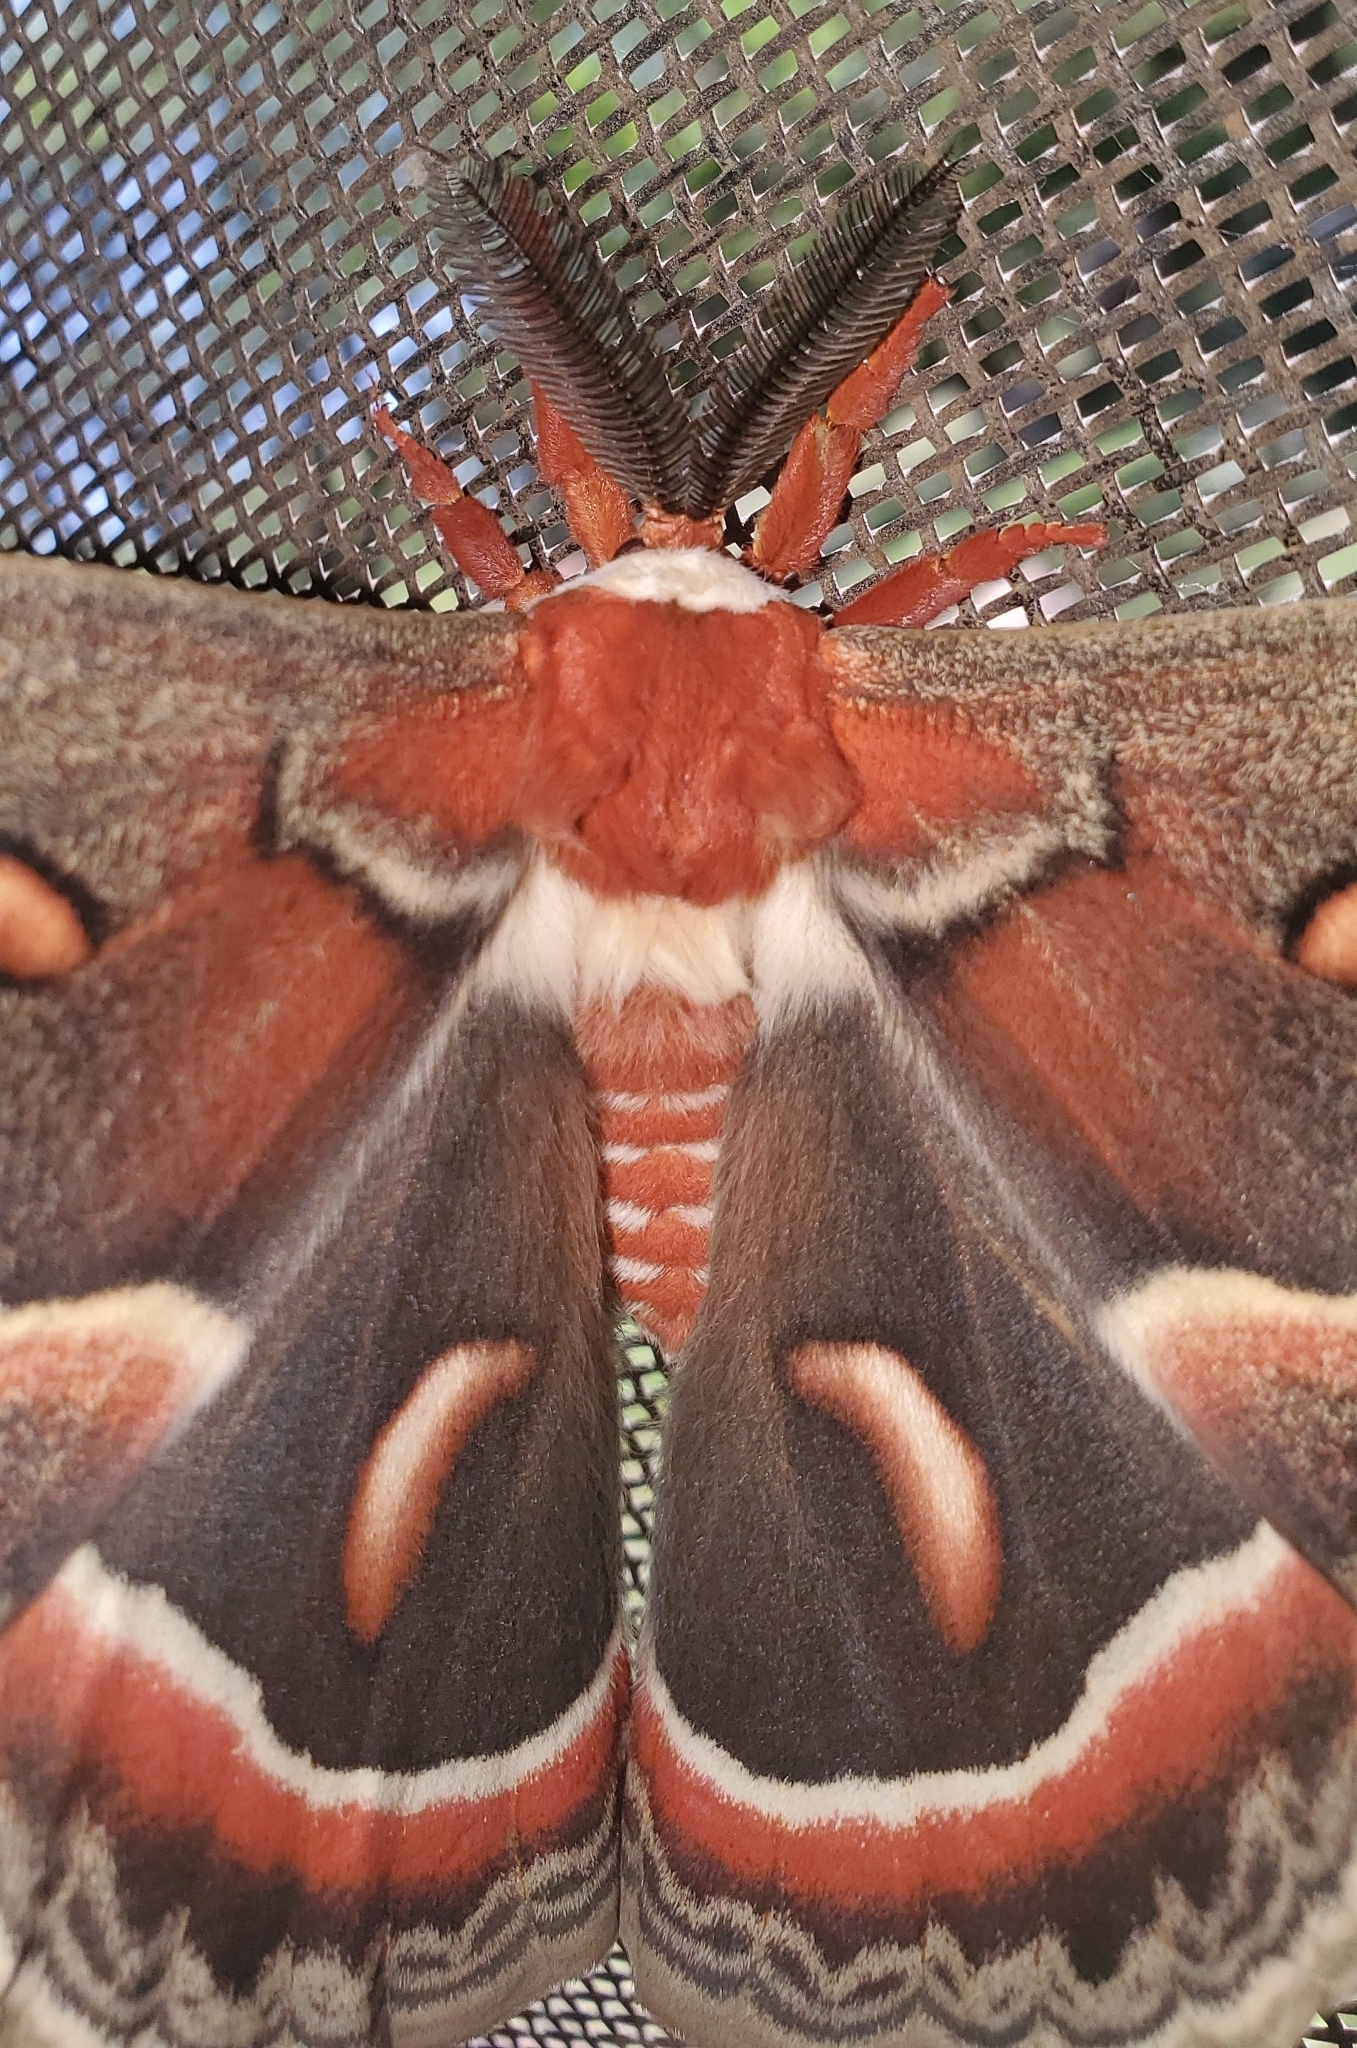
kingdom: Animalia
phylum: Arthropoda
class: Insecta
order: Lepidoptera
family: Saturniidae
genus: Hyalophora
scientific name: Hyalophora cecropia
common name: Cecropia silkmoth
